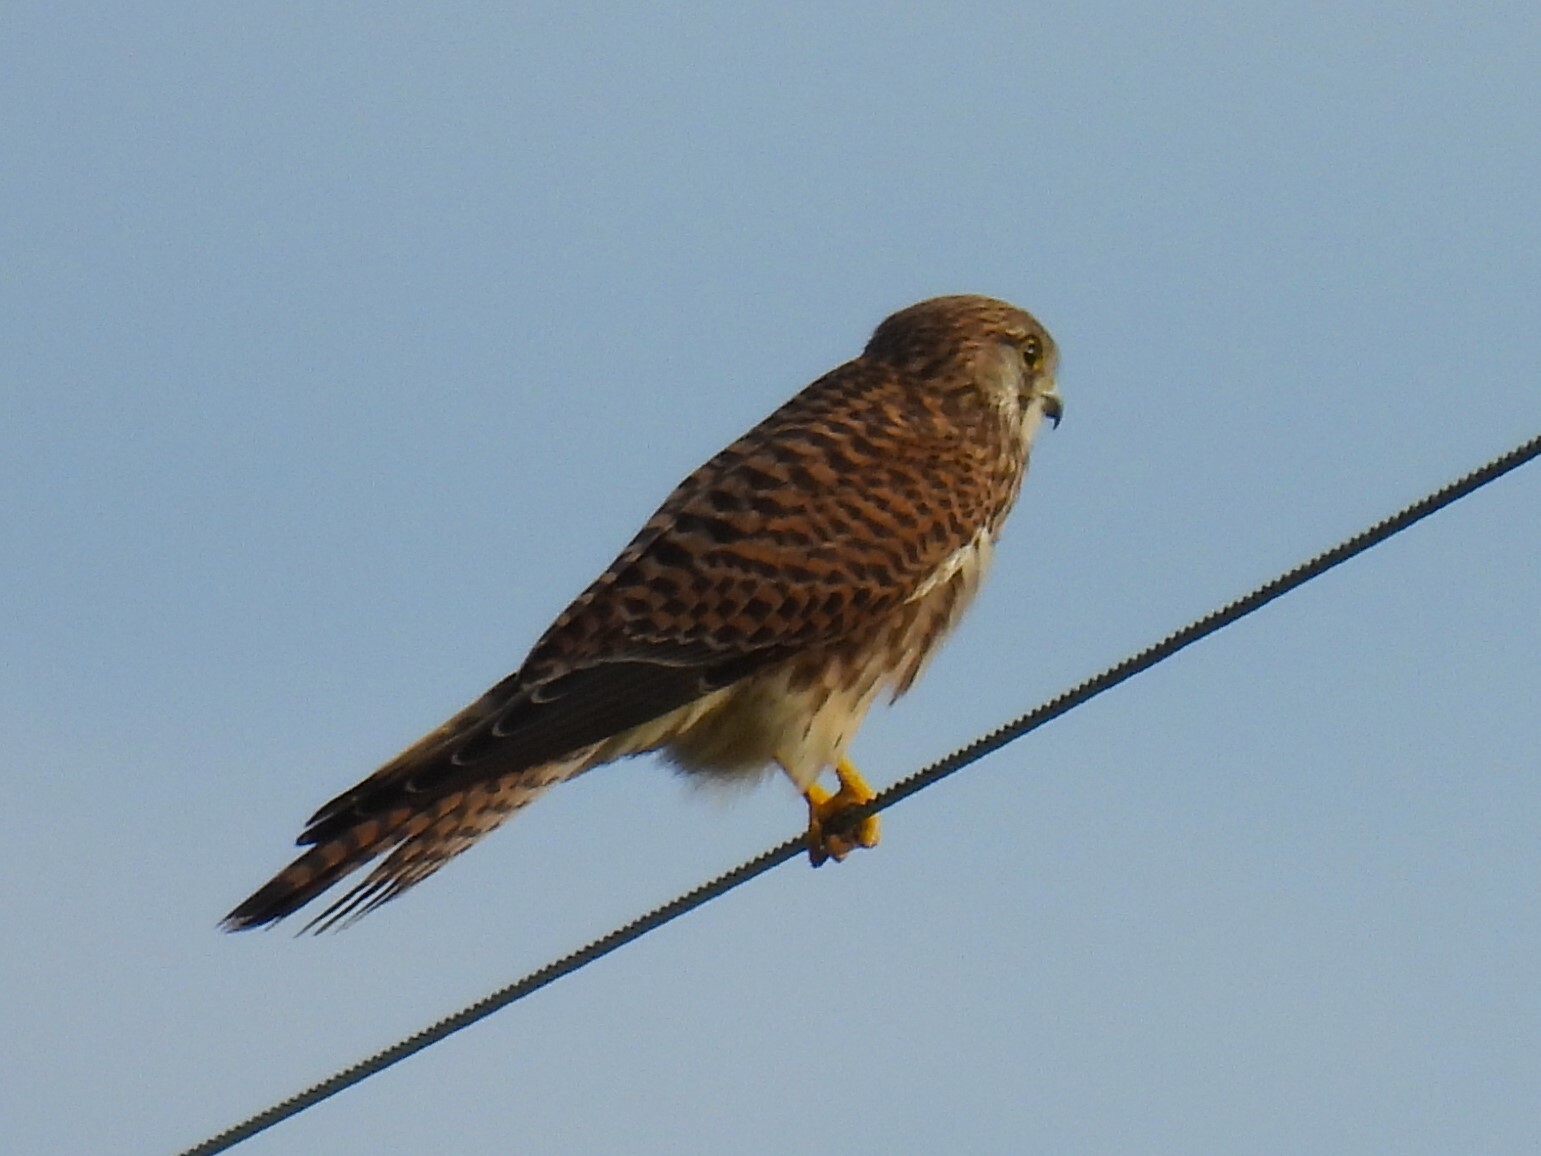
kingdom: Animalia
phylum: Chordata
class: Aves
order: Falconiformes
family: Falconidae
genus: Falco
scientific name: Falco tinnunculus
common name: Common kestrel
